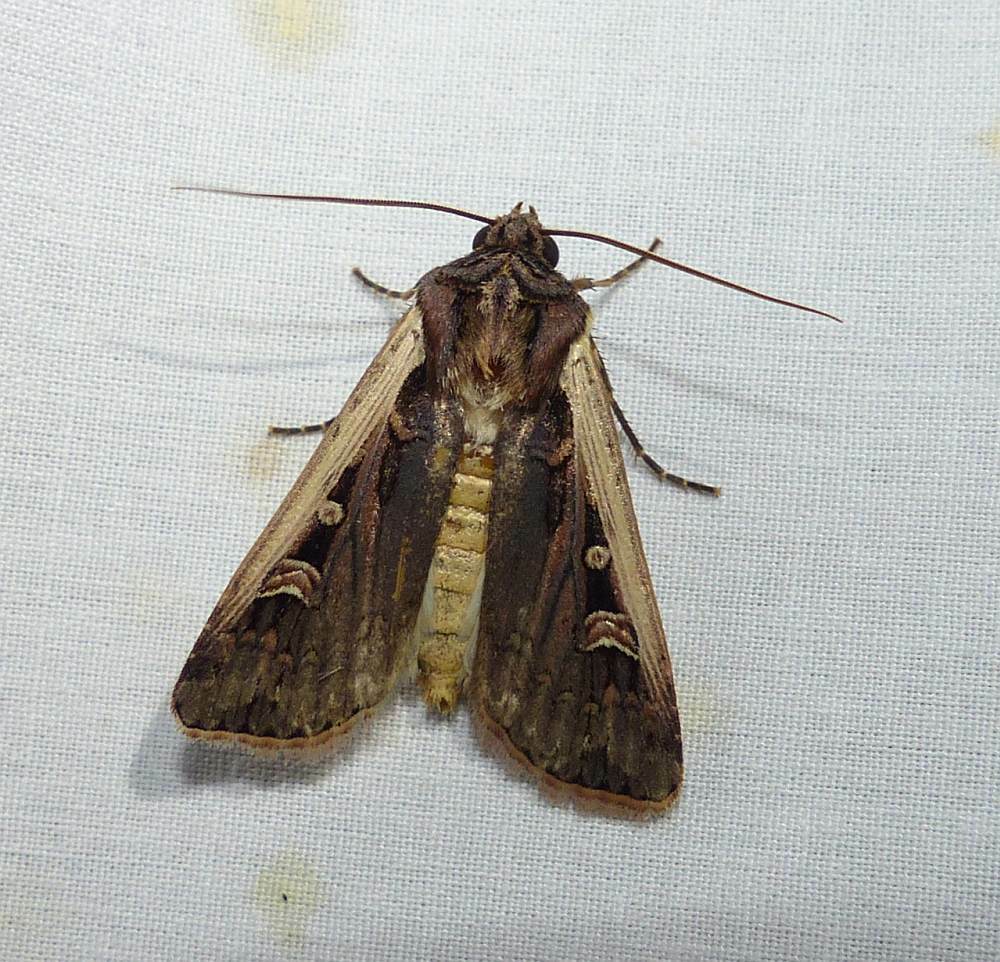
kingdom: Animalia
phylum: Arthropoda
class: Insecta
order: Lepidoptera
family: Noctuidae
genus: Striacosta
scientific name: Striacosta albicosta
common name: Western bean cutworm moth
